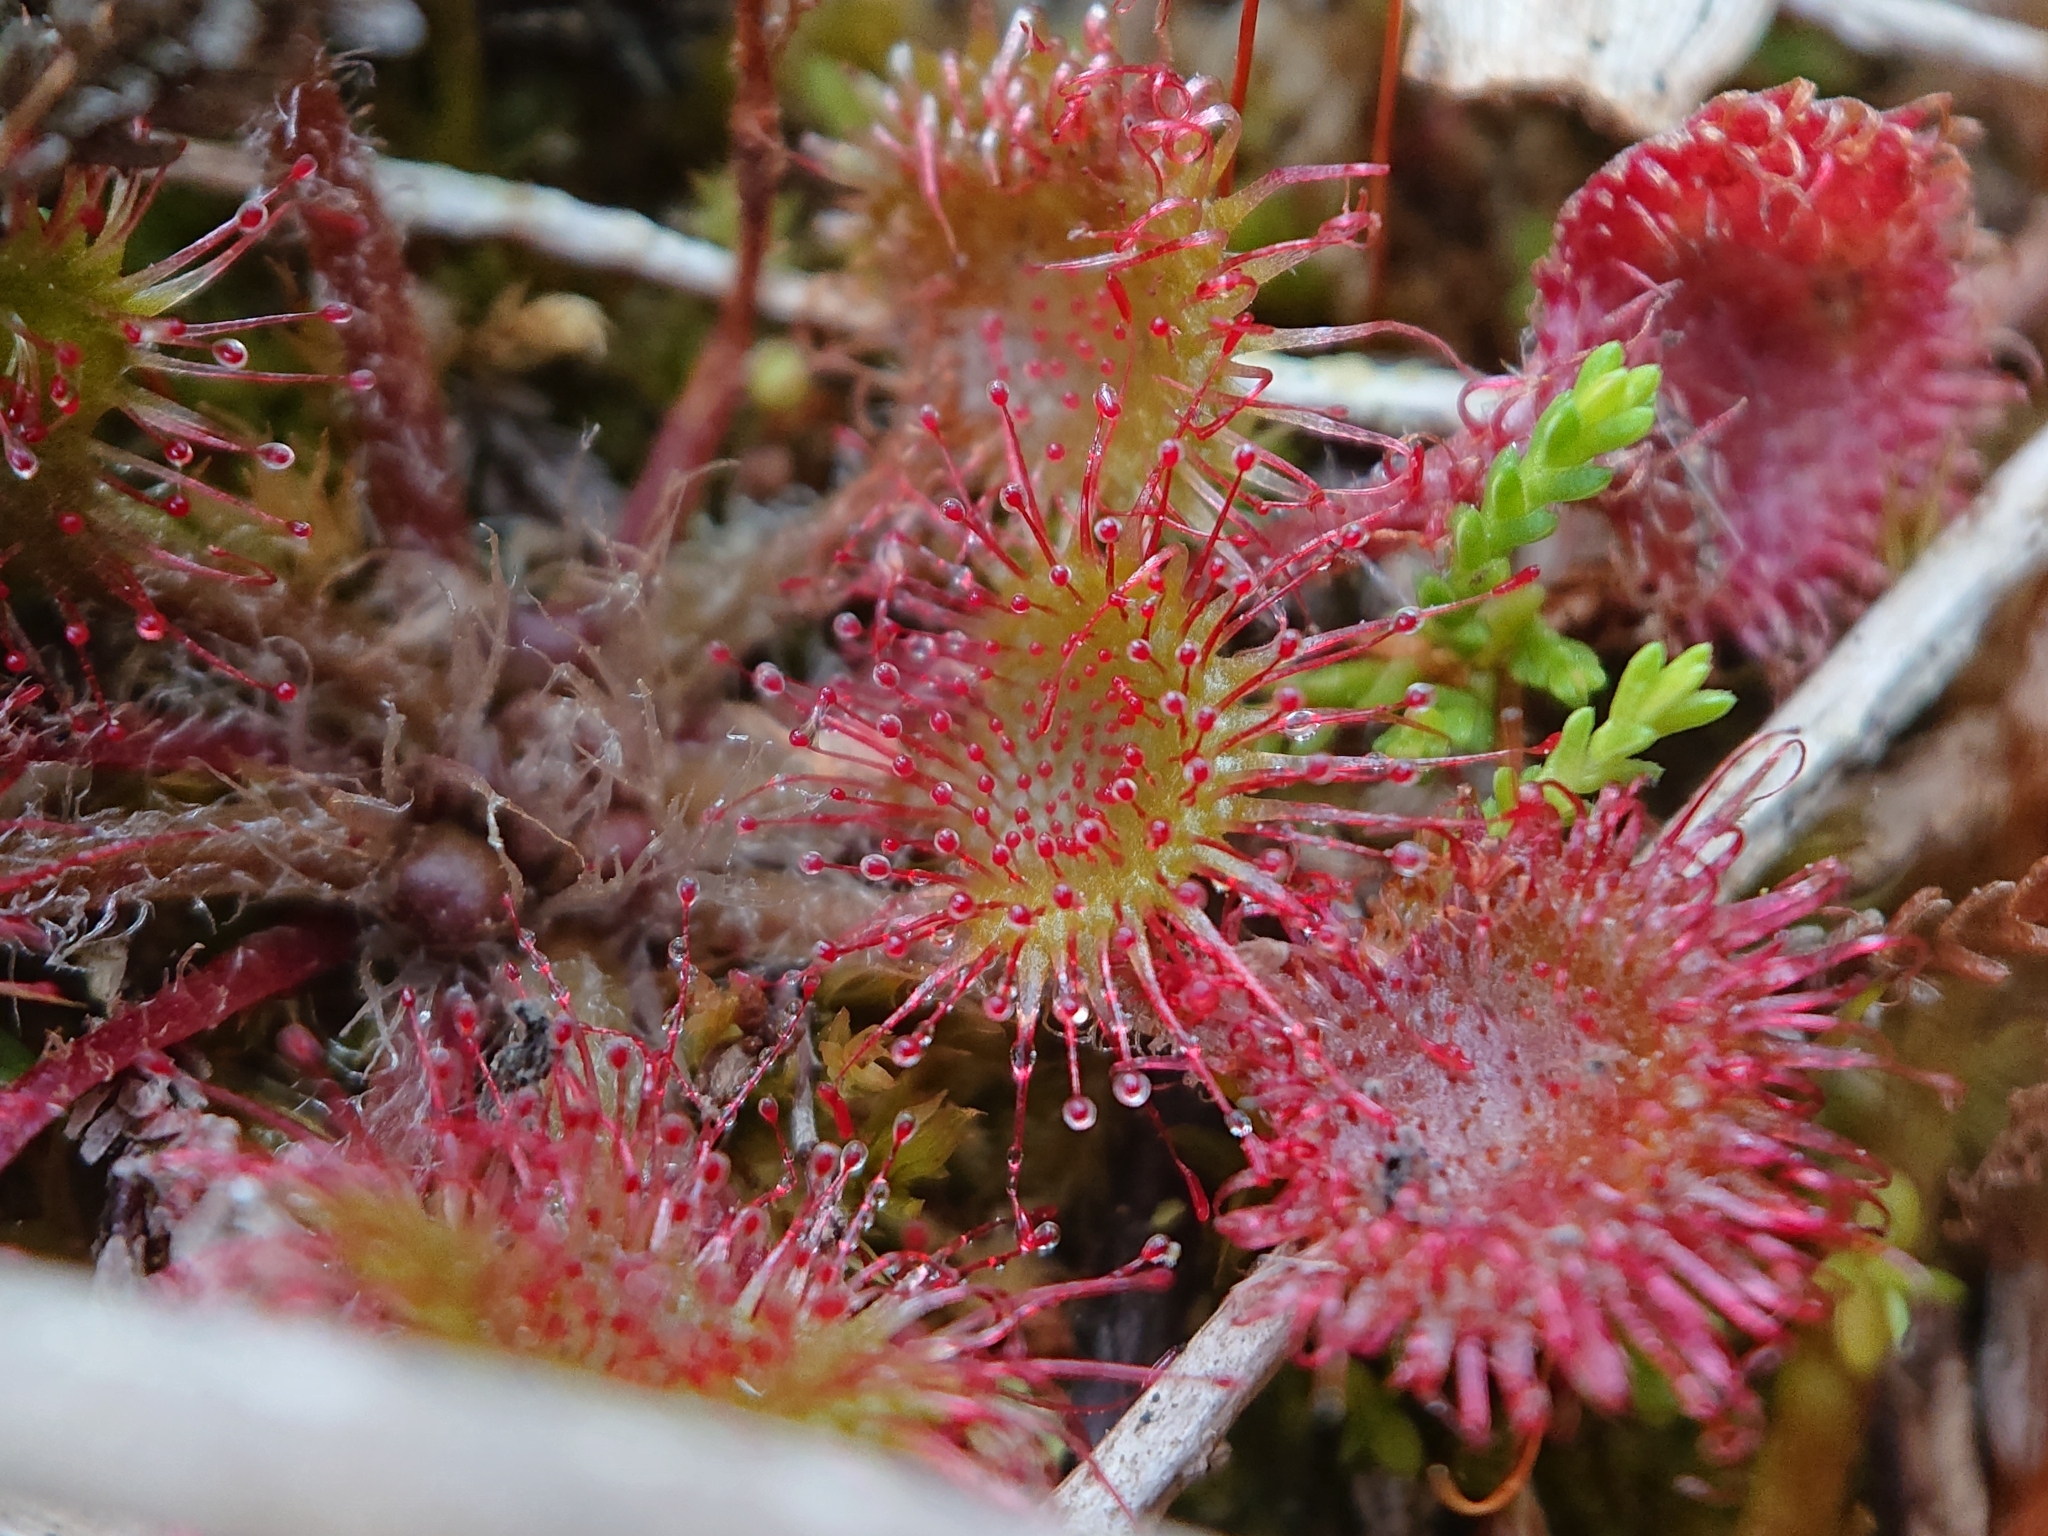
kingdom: Plantae
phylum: Tracheophyta
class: Magnoliopsida
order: Caryophyllales
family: Droseraceae
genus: Drosera
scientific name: Drosera rotundifolia
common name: Round-leaved sundew
